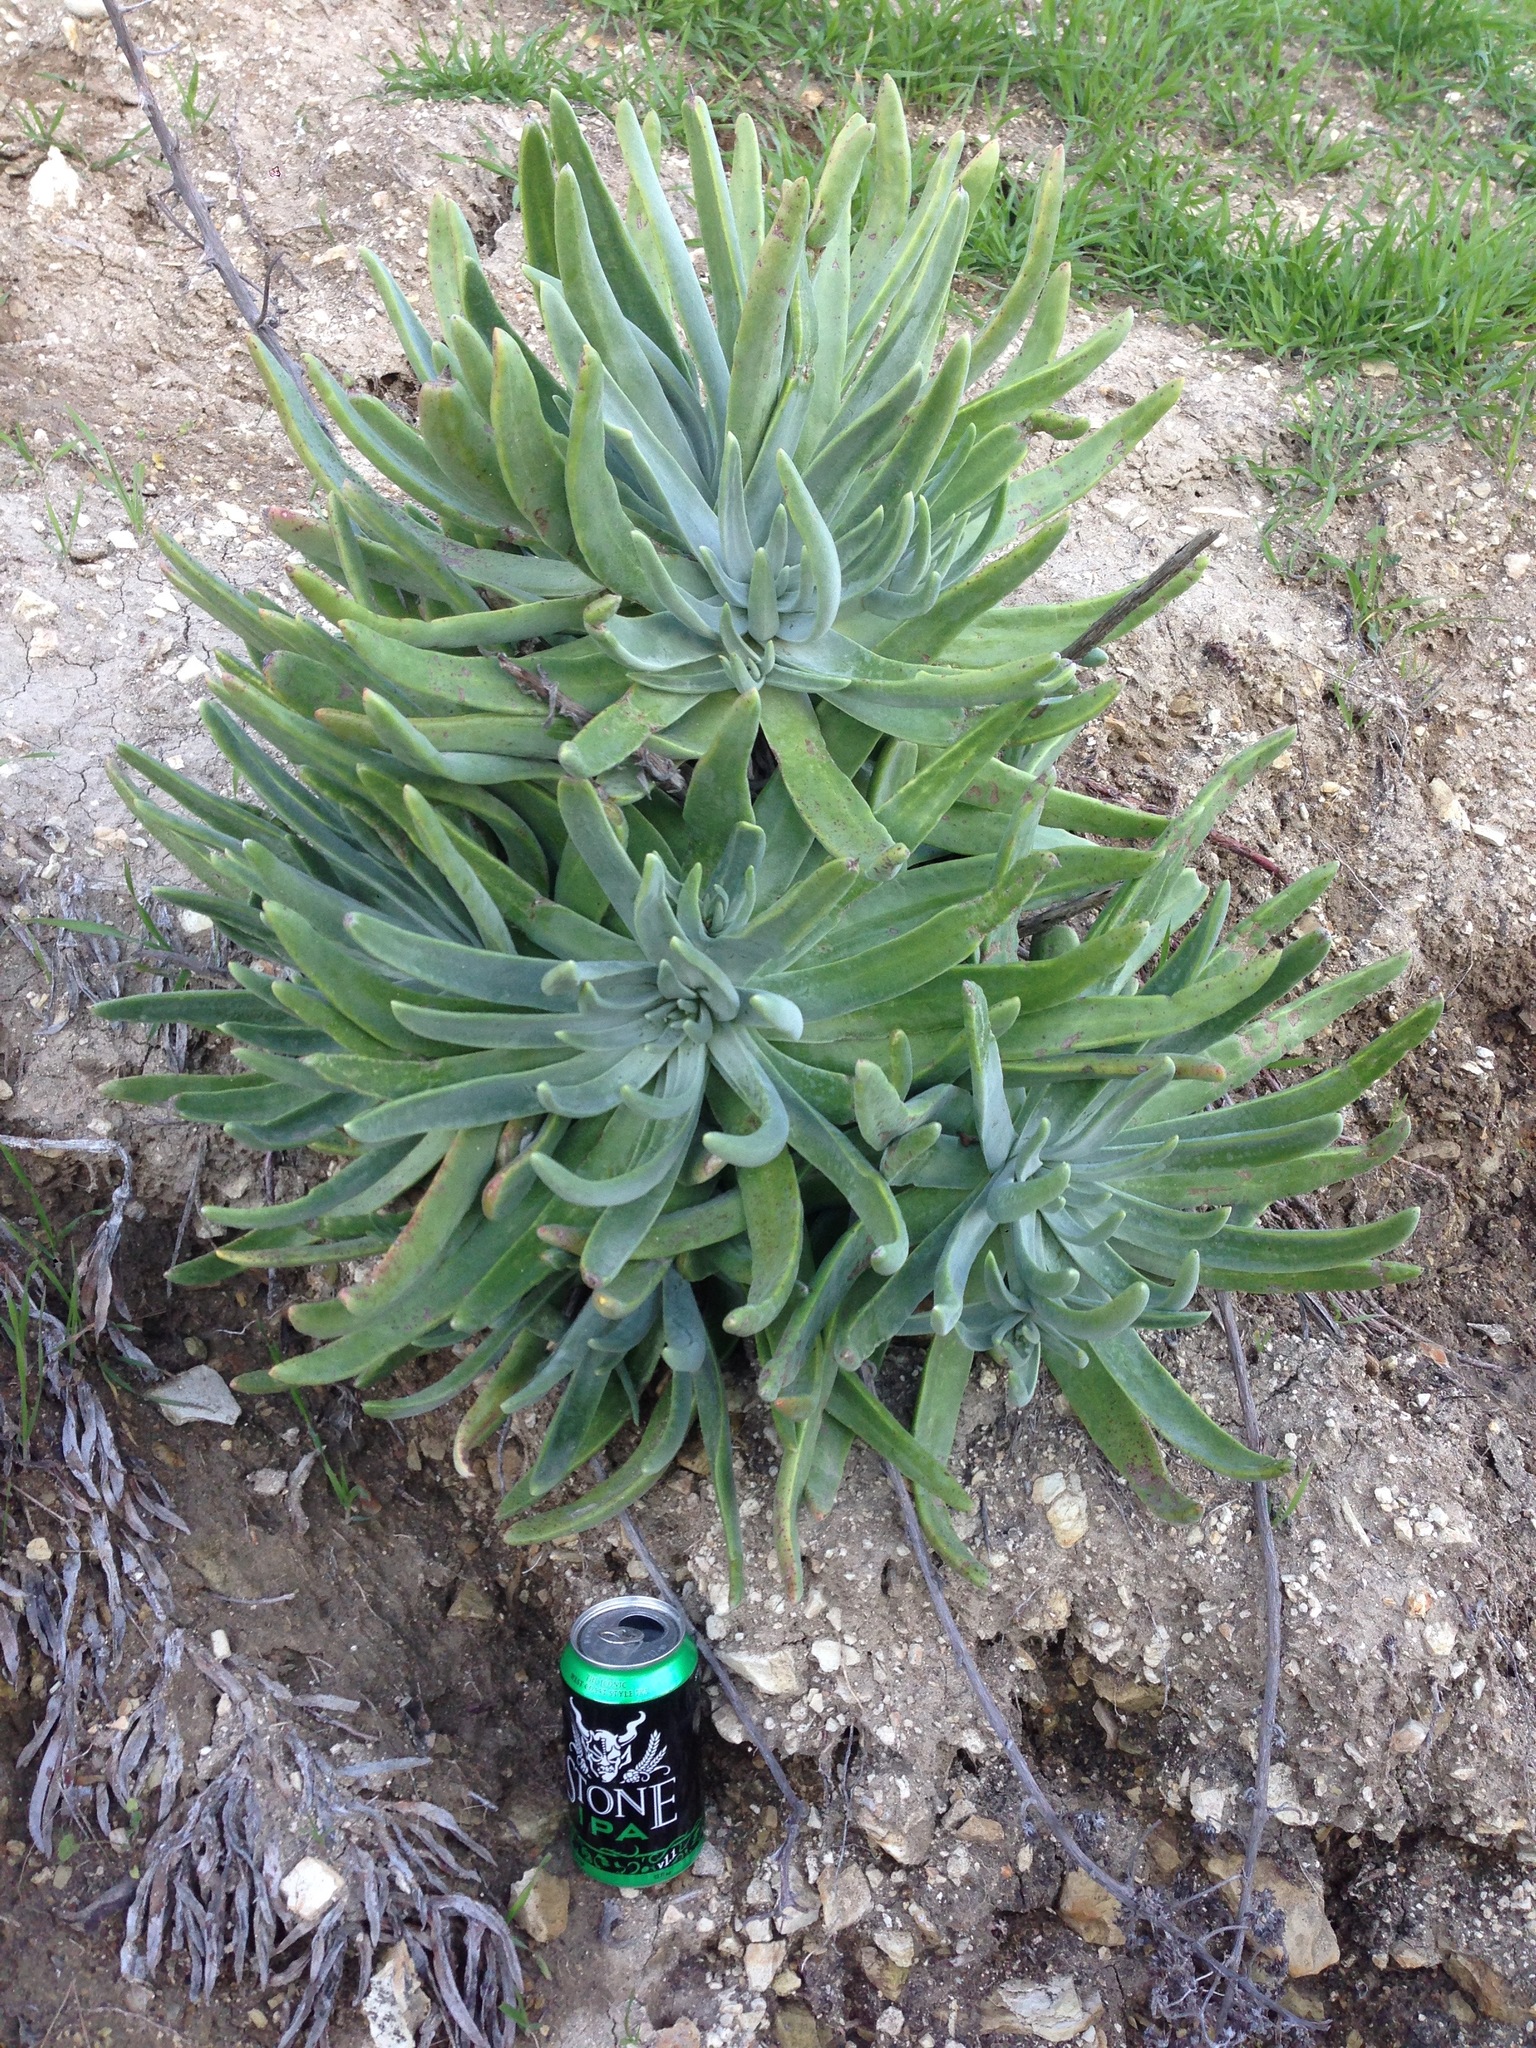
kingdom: Plantae
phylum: Tracheophyta
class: Magnoliopsida
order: Saxifragales
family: Crassulaceae
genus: Dudleya
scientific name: Dudleya virens
